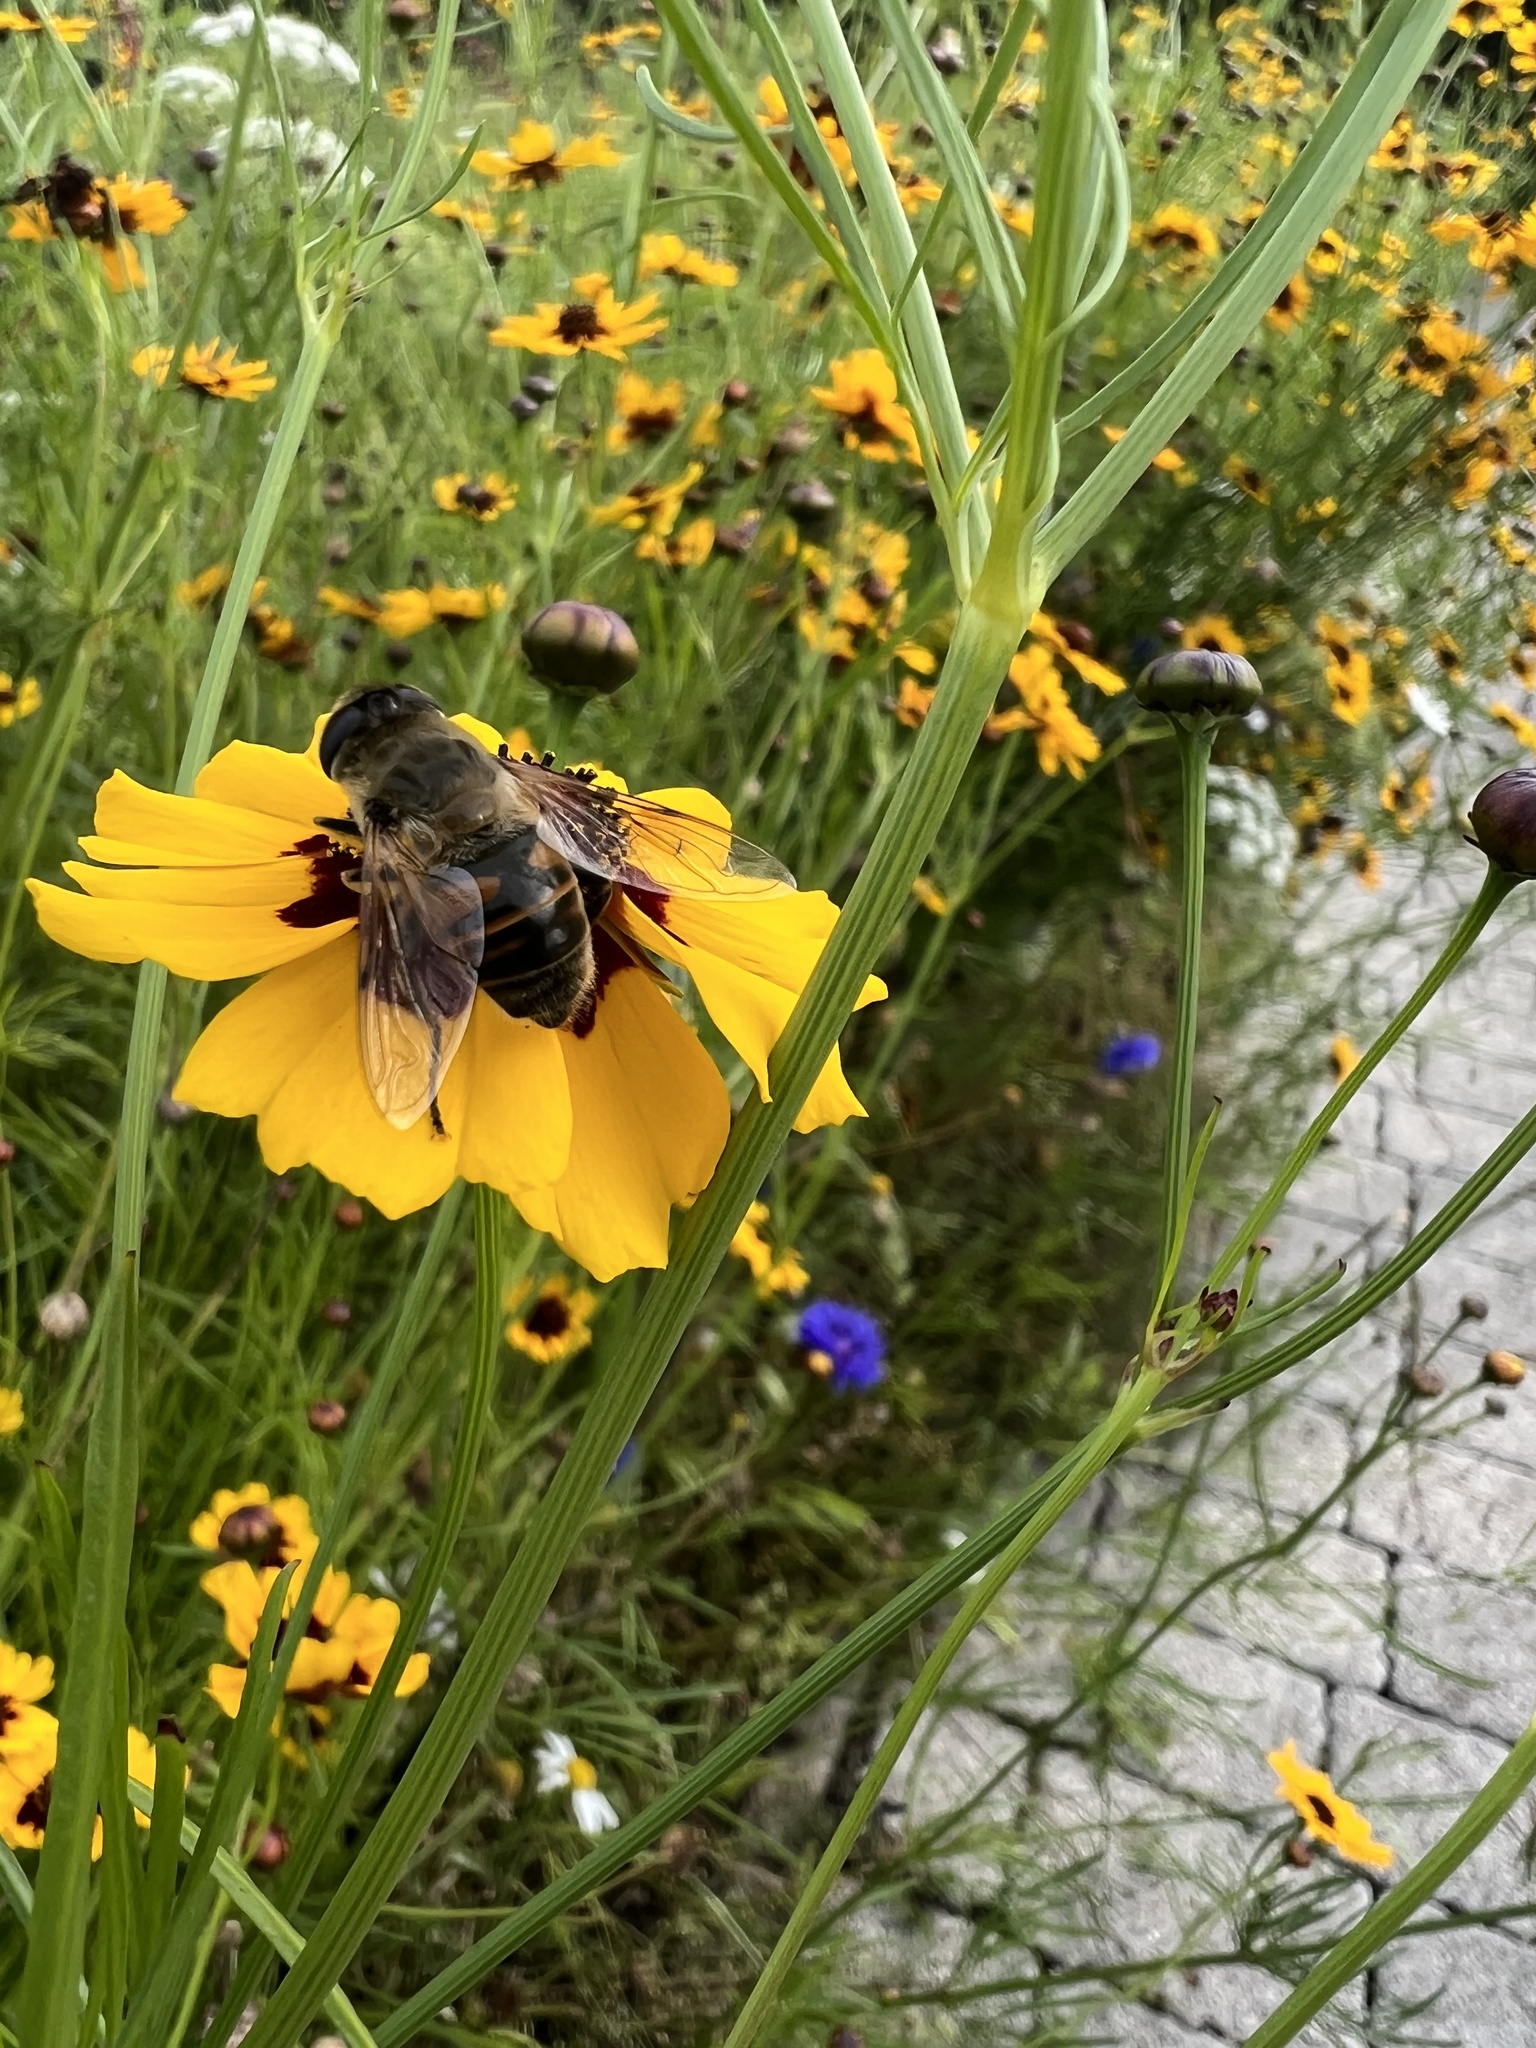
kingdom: Animalia
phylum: Arthropoda
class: Insecta
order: Diptera
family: Syrphidae
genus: Eristalis
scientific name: Eristalis tenax
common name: Drone fly
